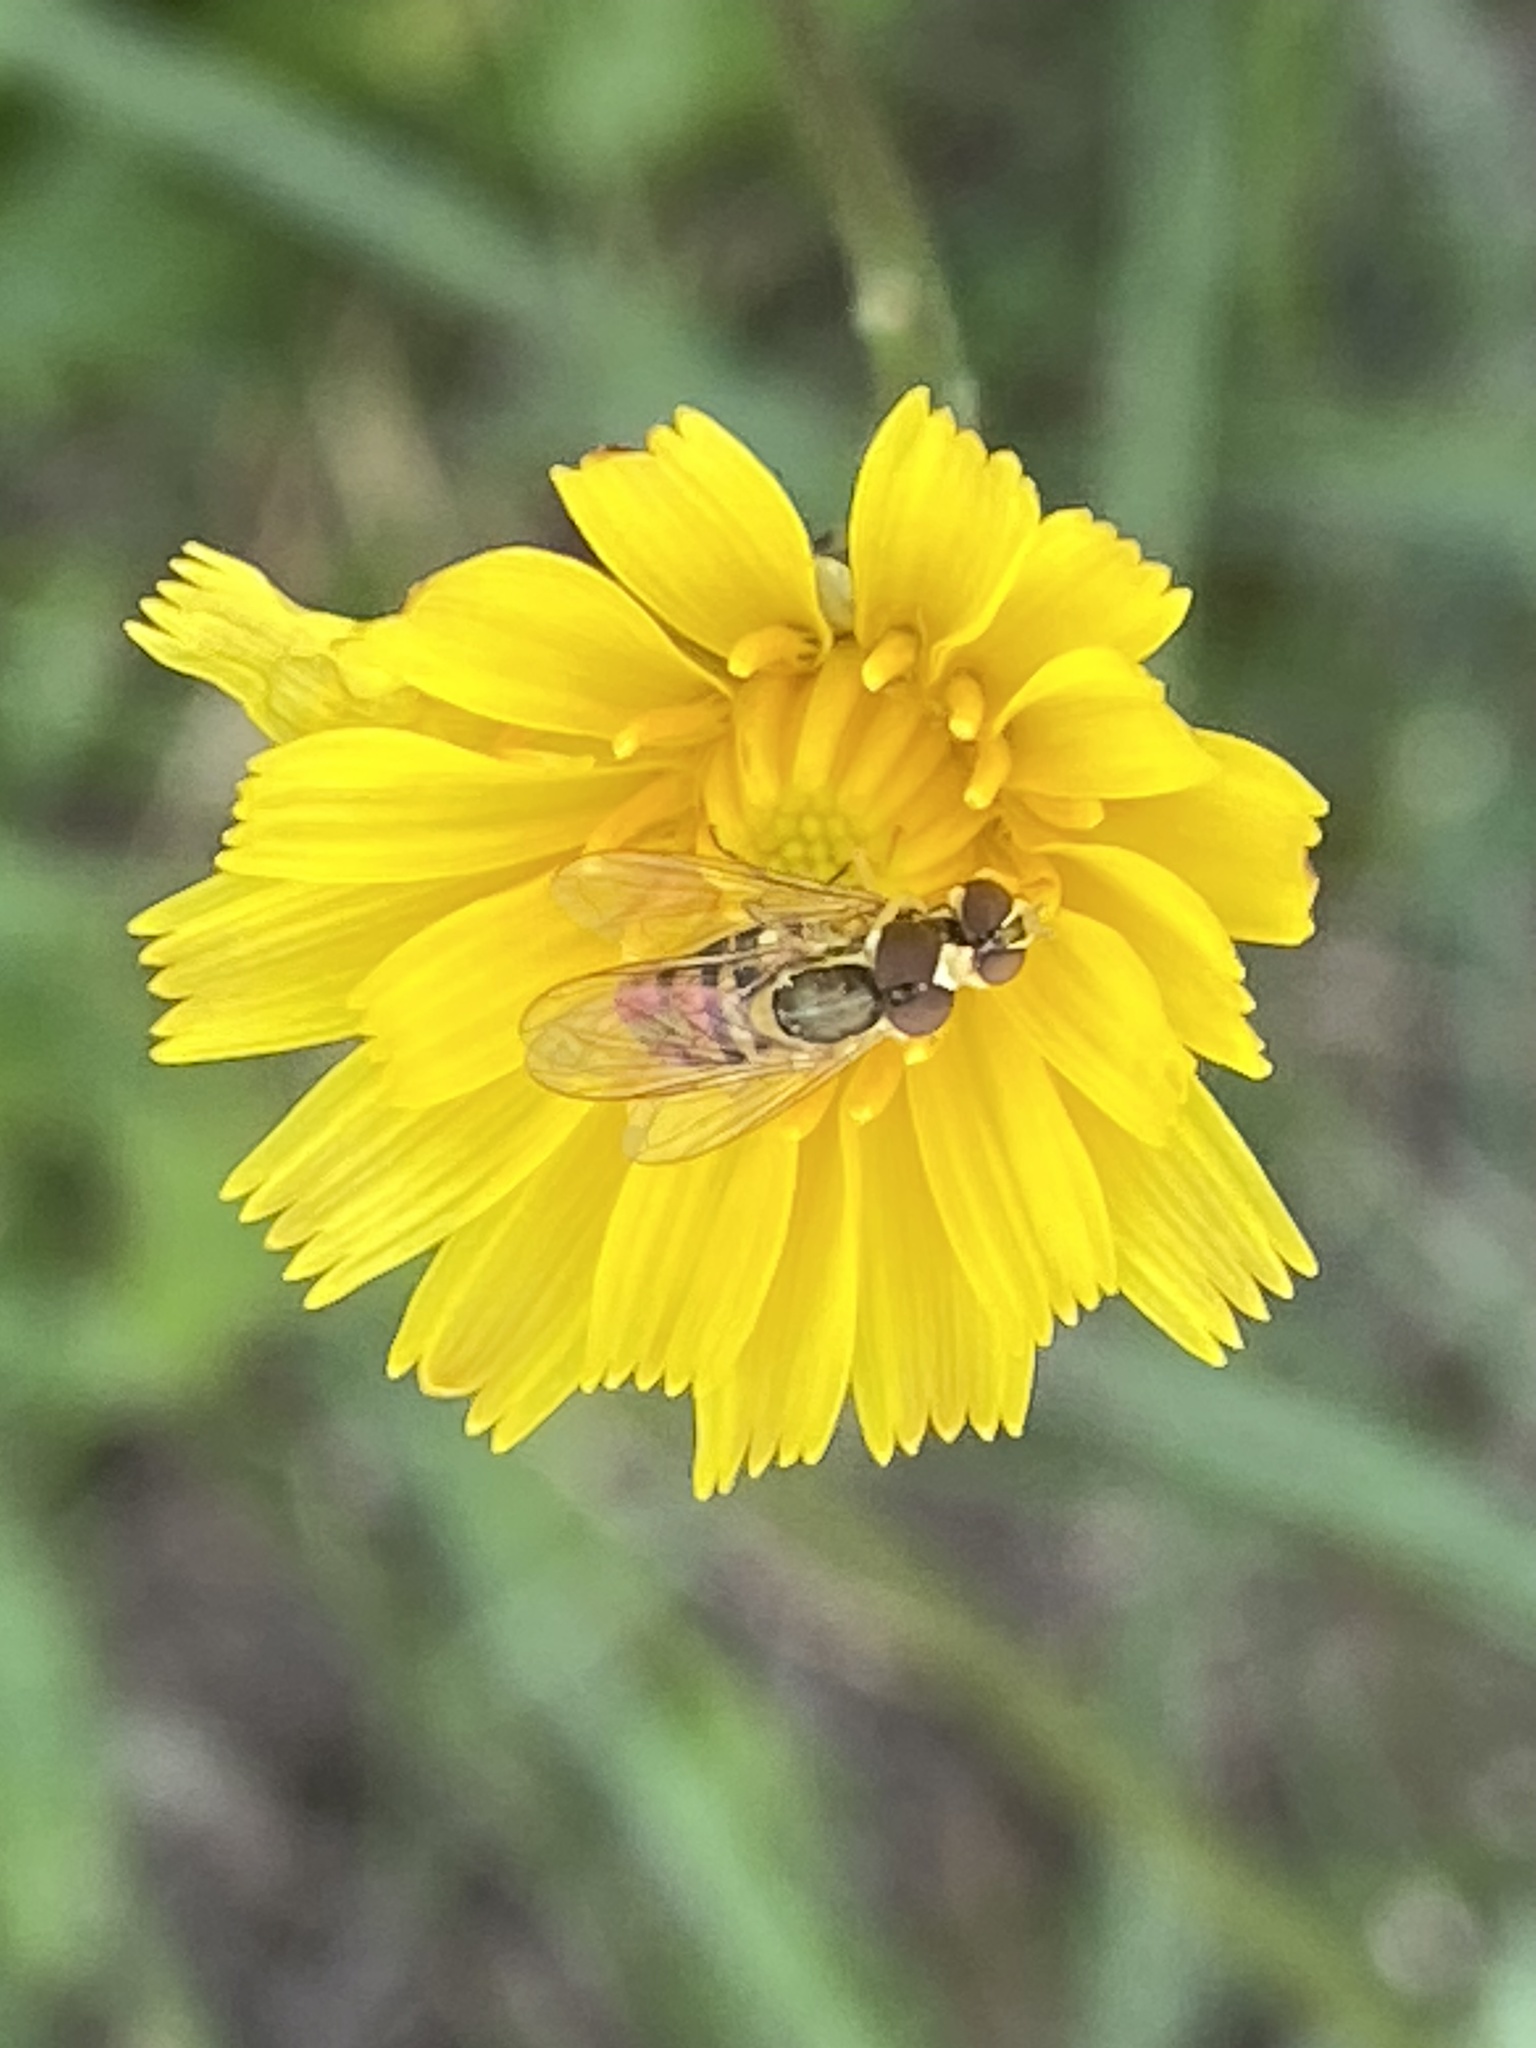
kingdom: Animalia
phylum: Arthropoda
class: Insecta
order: Diptera
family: Syrphidae
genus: Toxomerus
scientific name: Toxomerus marginatus
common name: Syrphid fly
